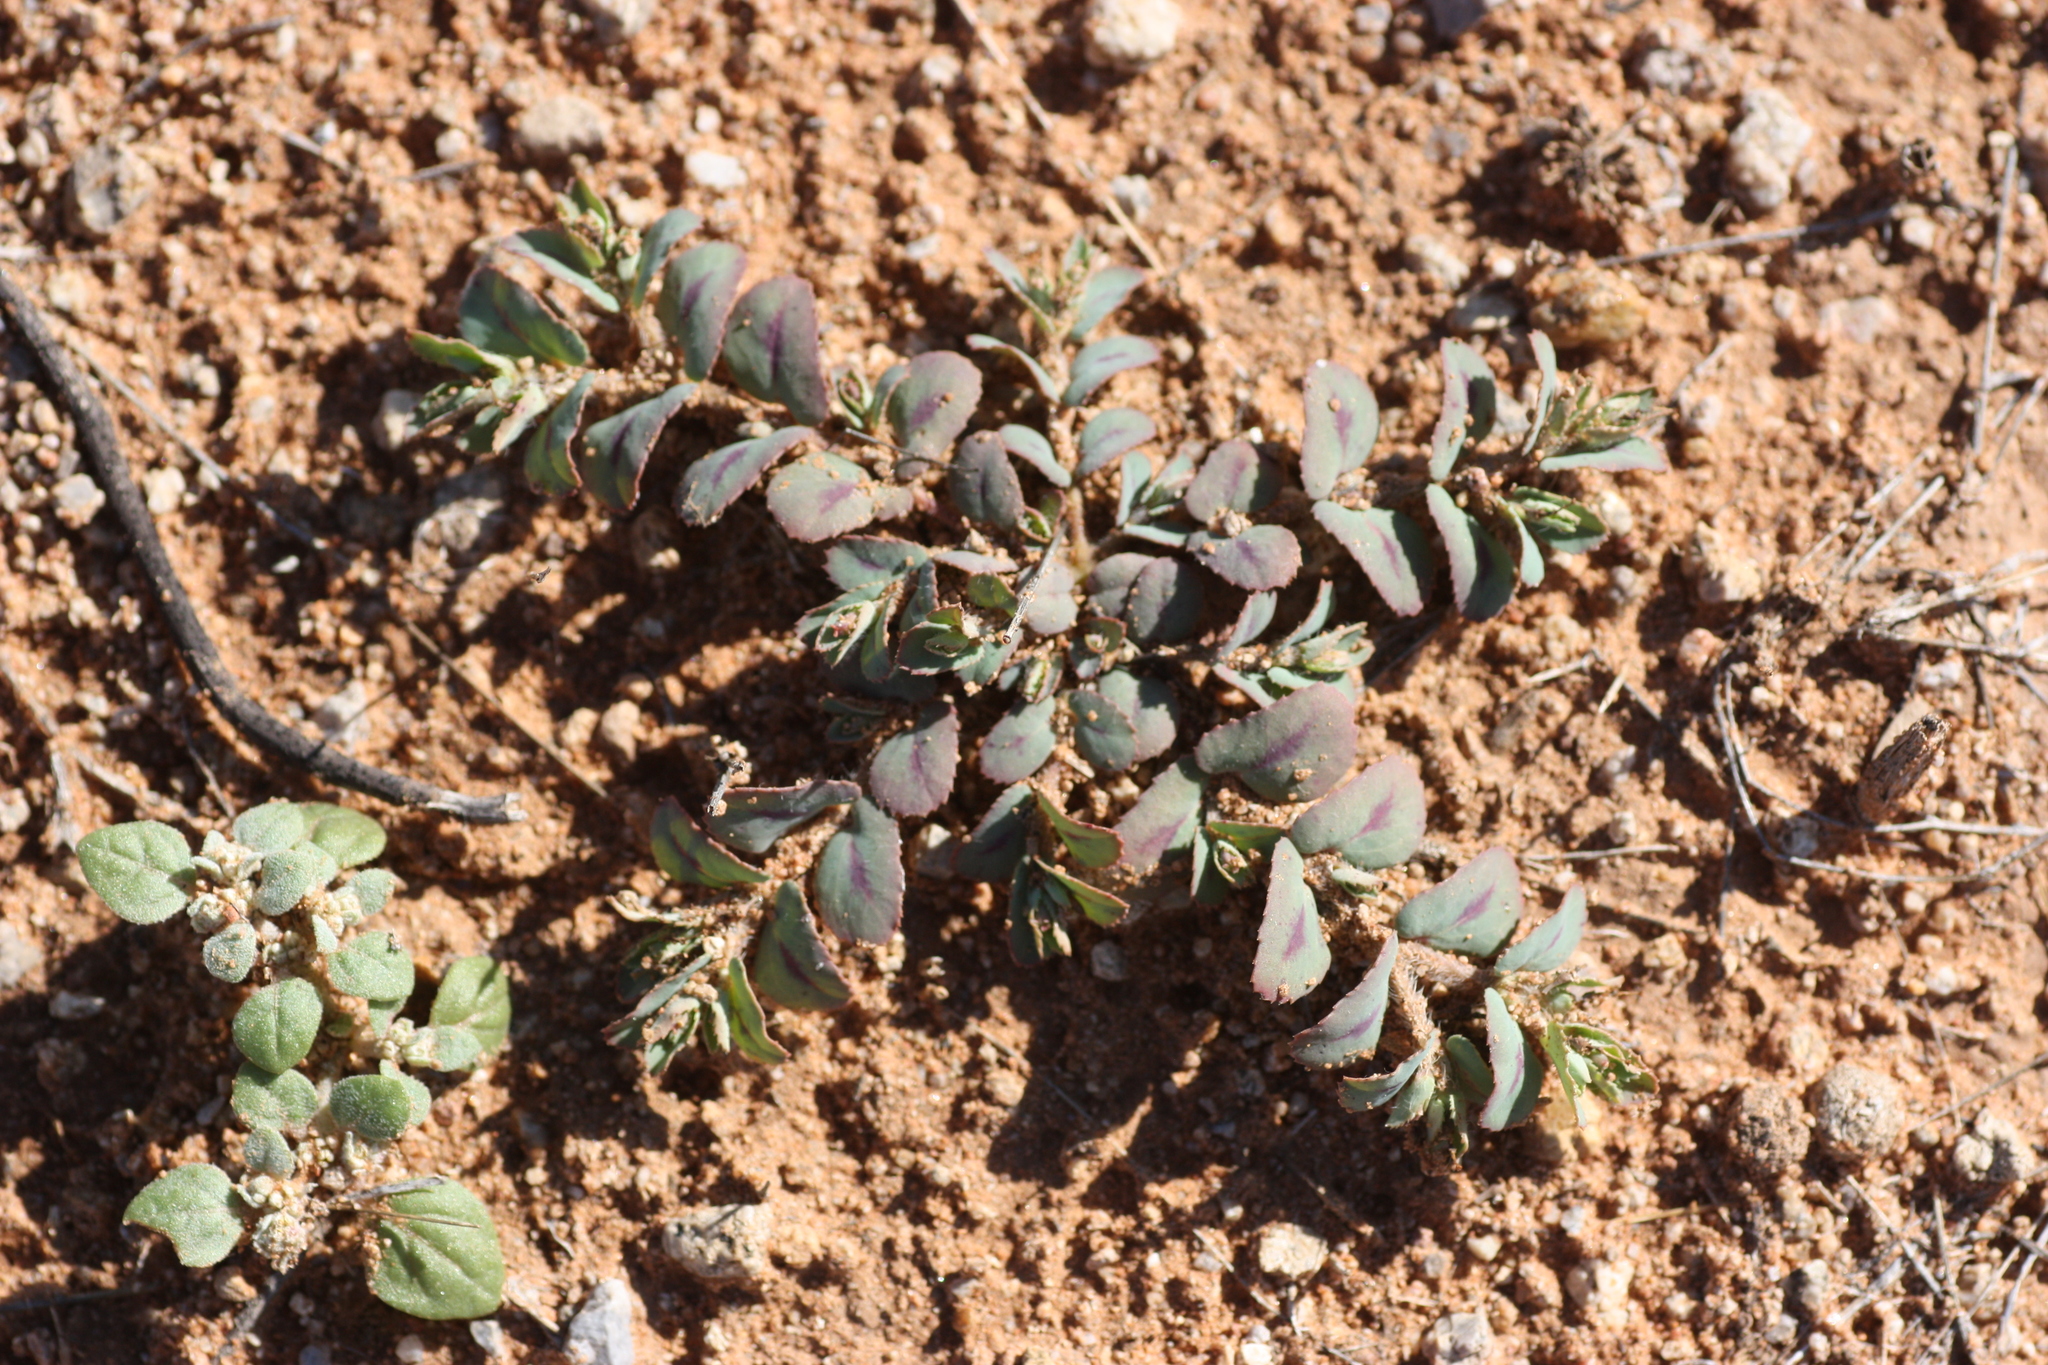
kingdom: Plantae
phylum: Tracheophyta
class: Magnoliopsida
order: Malpighiales
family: Euphorbiaceae
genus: Euphorbia
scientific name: Euphorbia serrula
